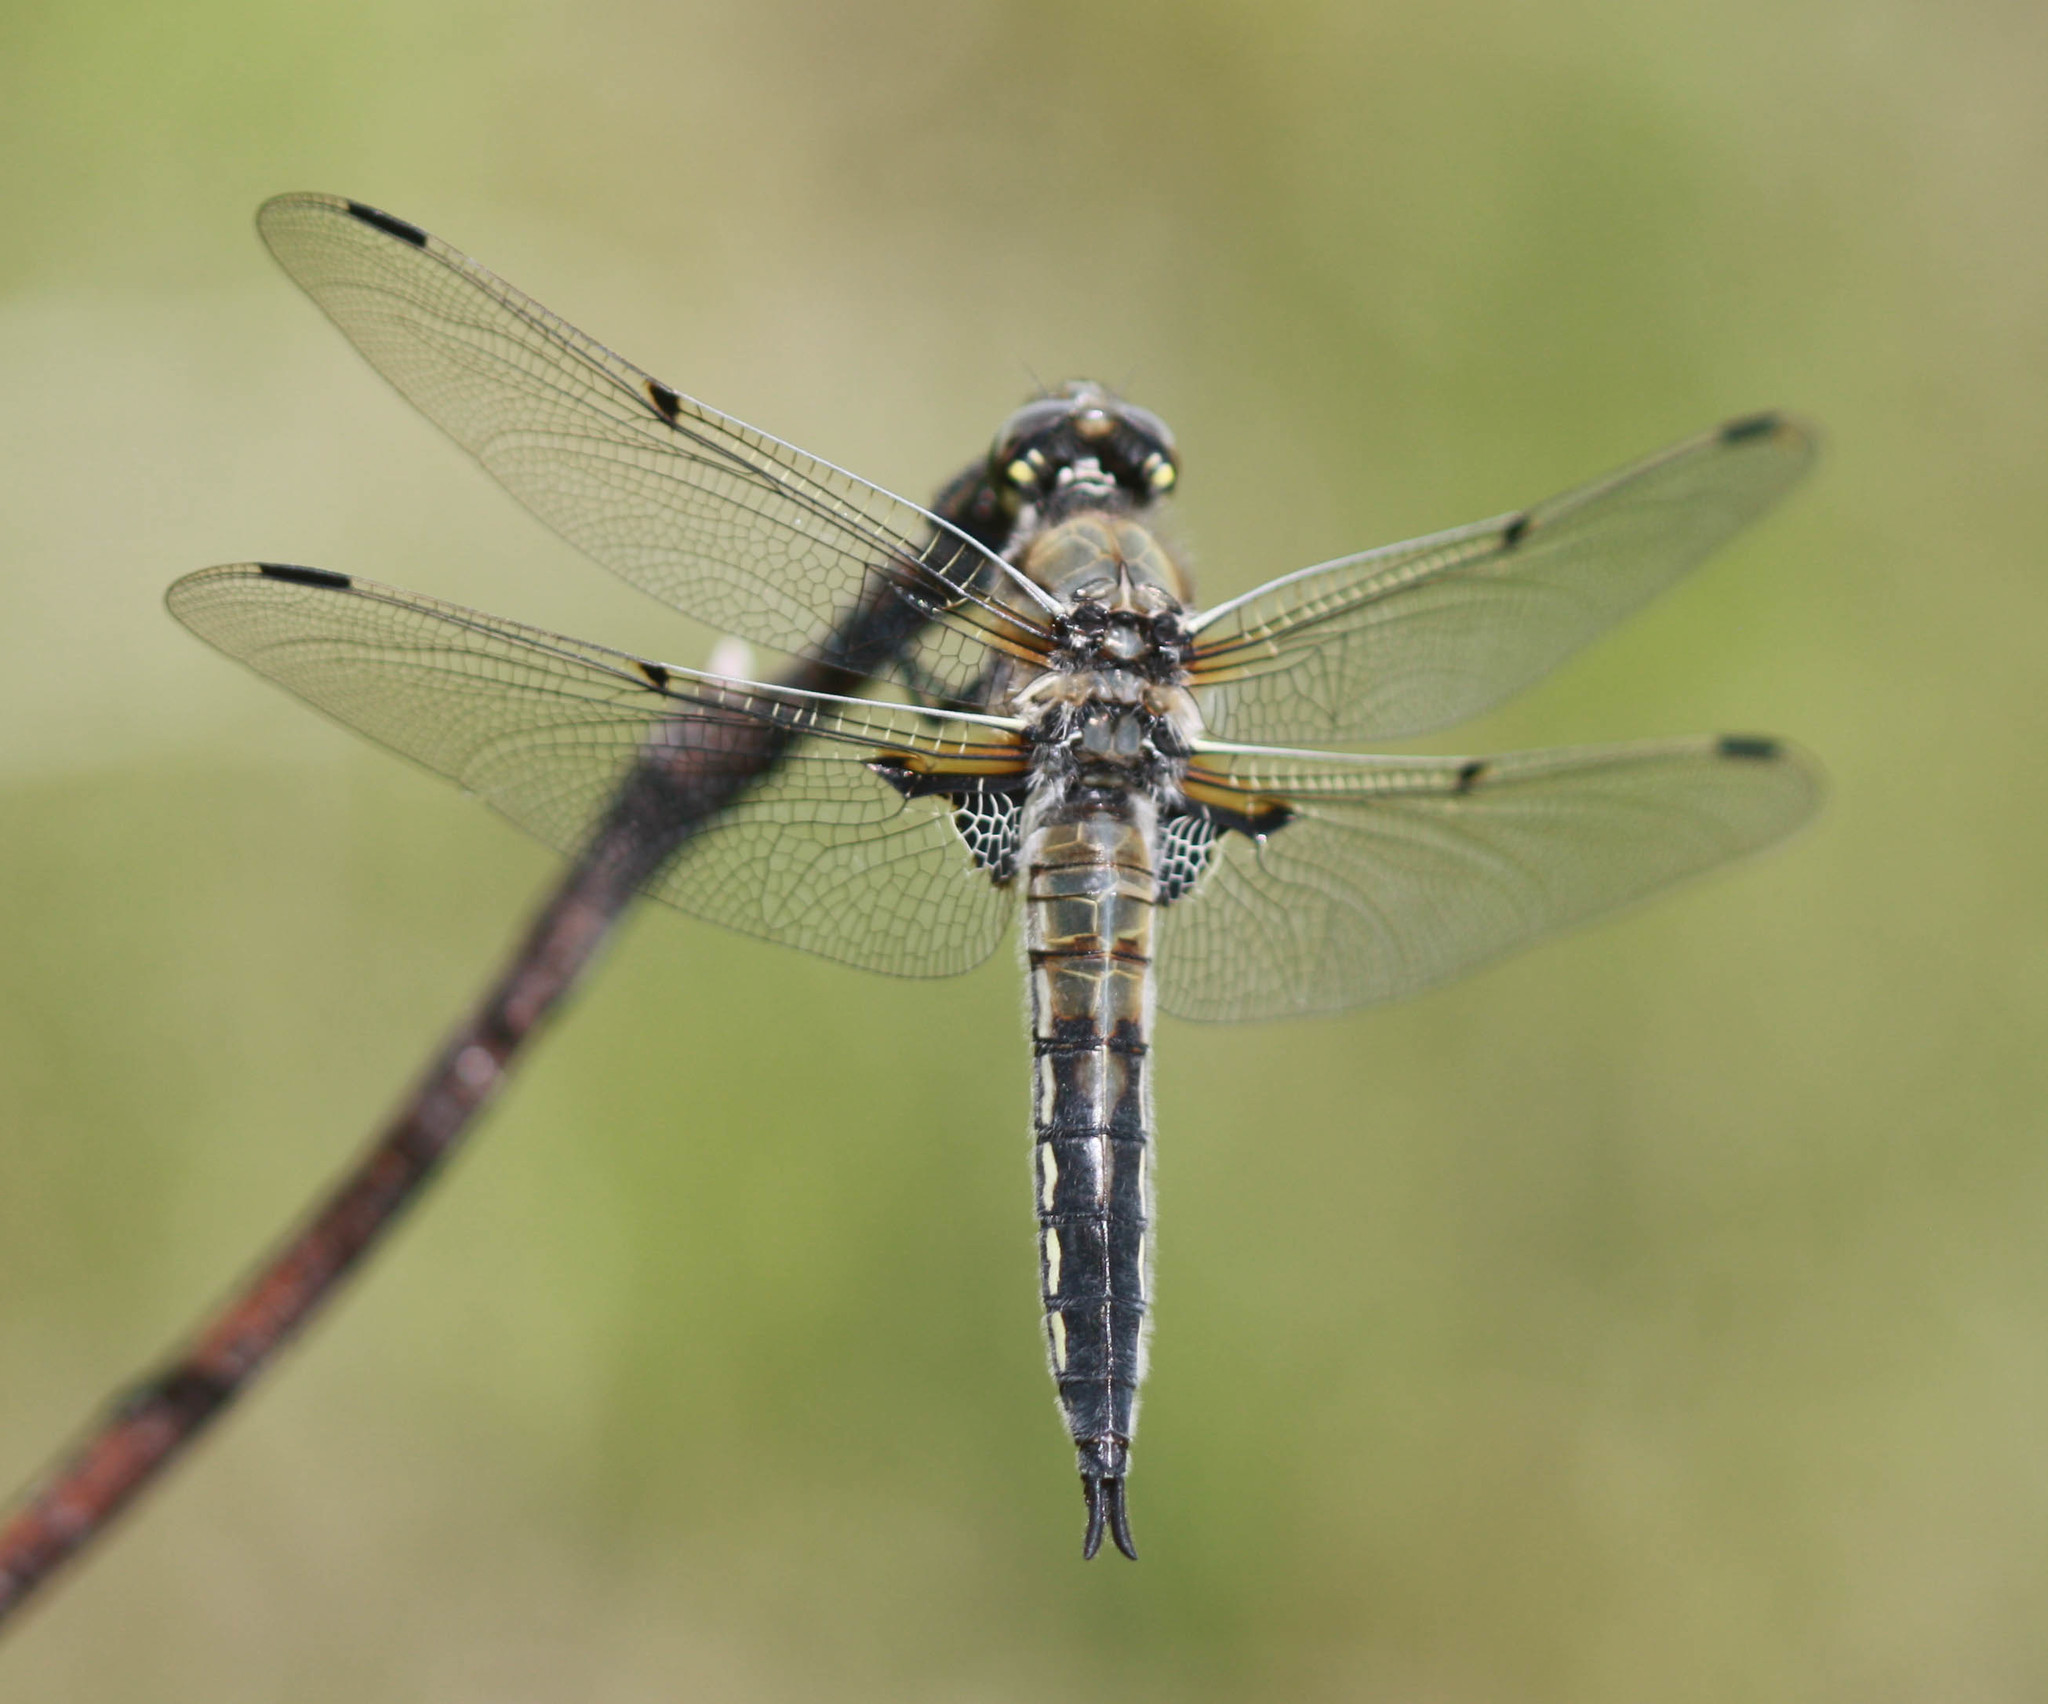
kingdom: Animalia
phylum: Arthropoda
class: Insecta
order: Odonata
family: Libellulidae
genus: Libellula
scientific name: Libellula quadrimaculata
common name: Four-spotted chaser
